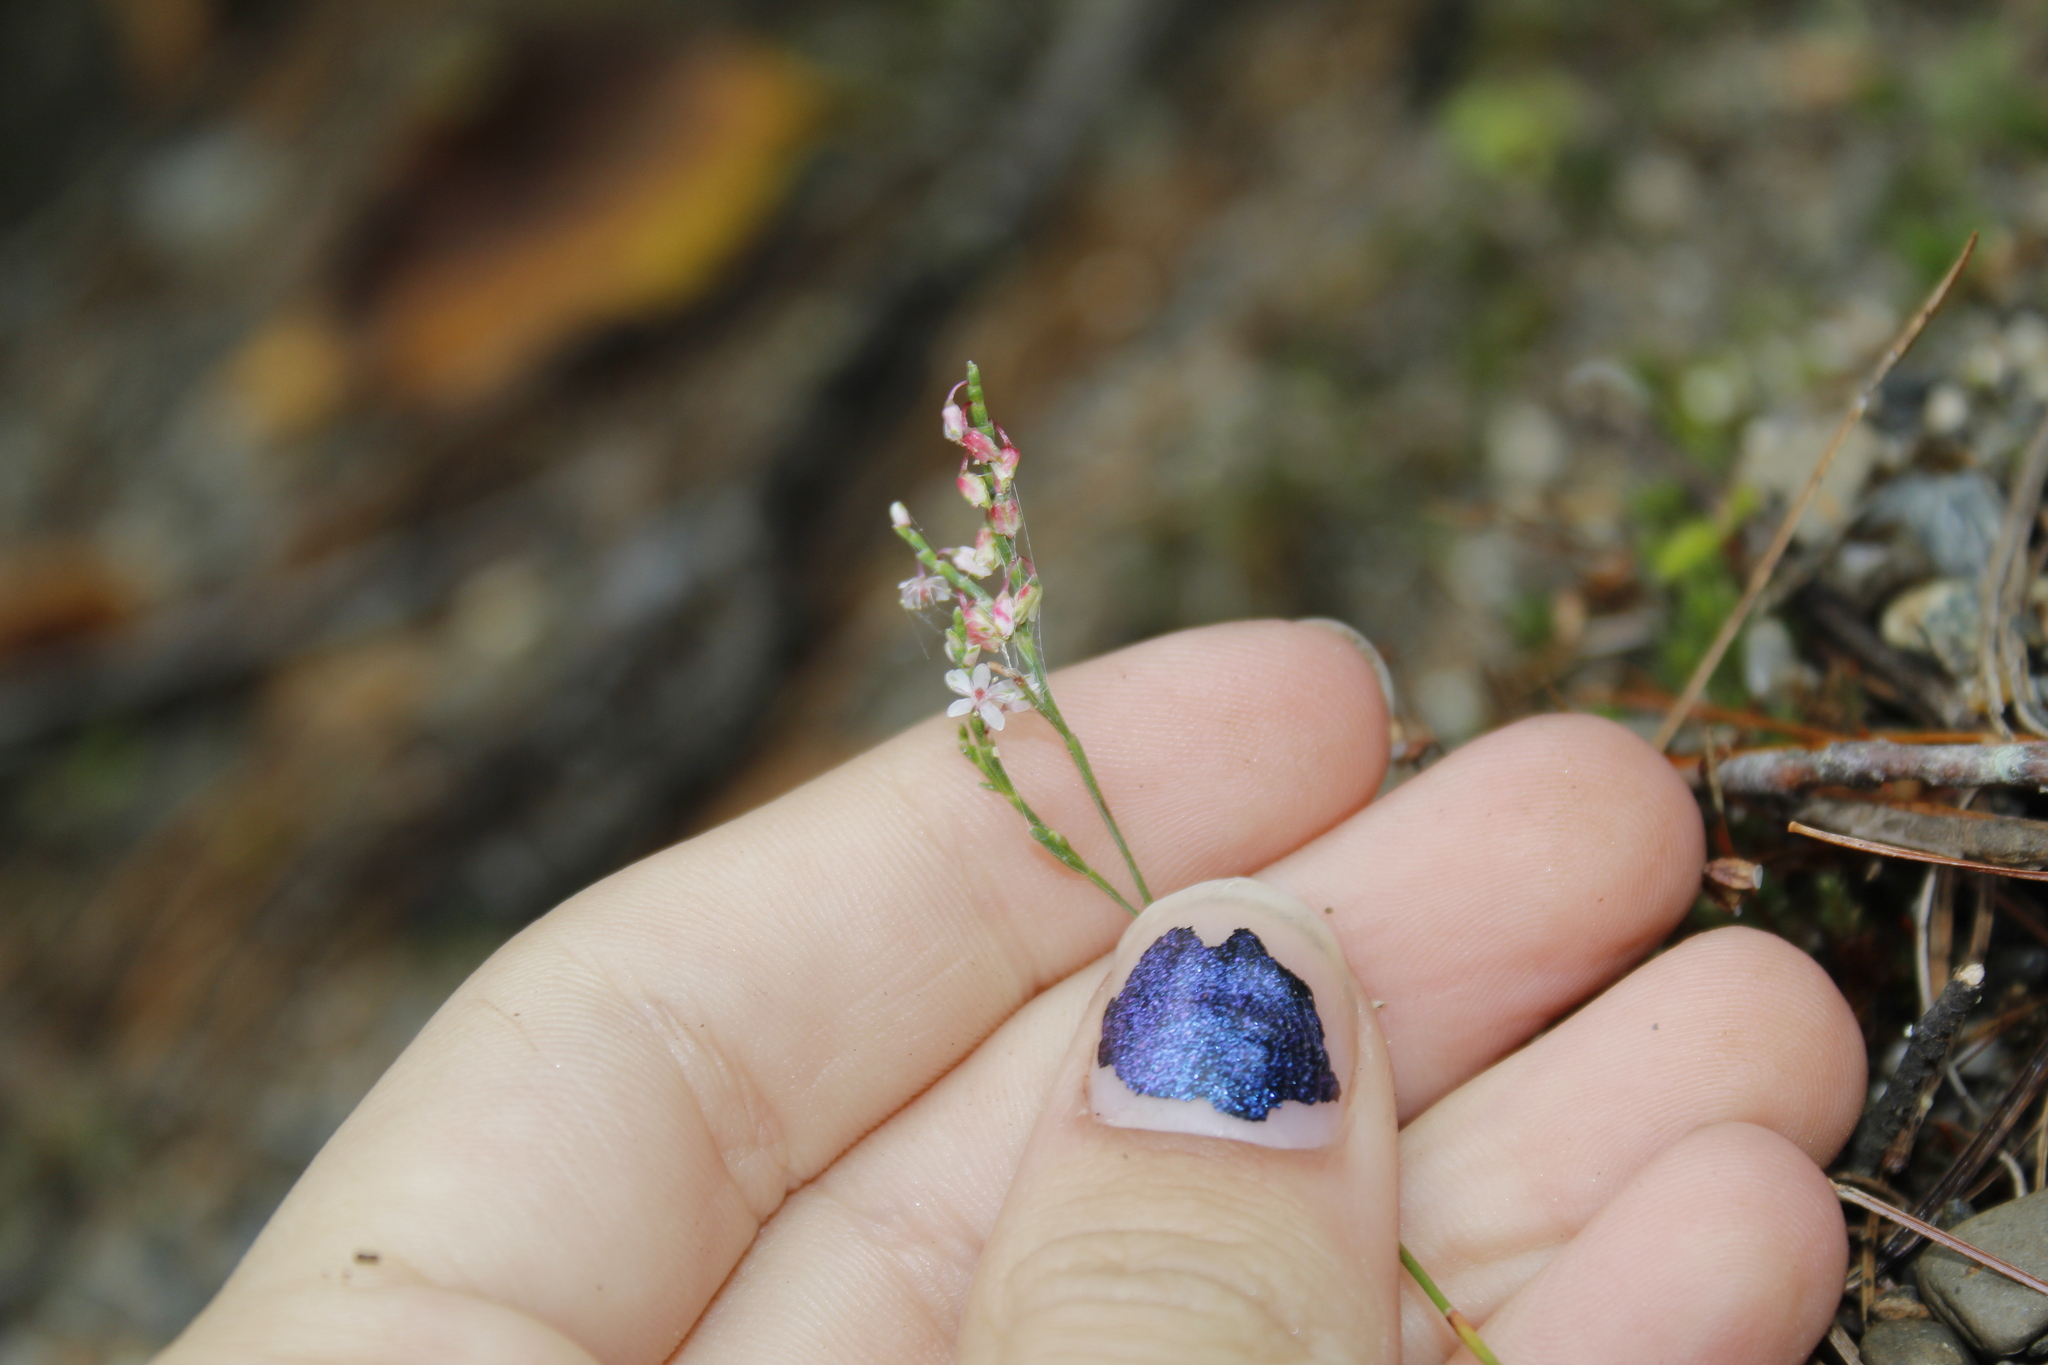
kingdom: Plantae
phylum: Tracheophyta
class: Magnoliopsida
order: Caryophyllales
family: Polygonaceae
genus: Polygonella
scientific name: Polygonella articulata
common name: Coastal jointweed
